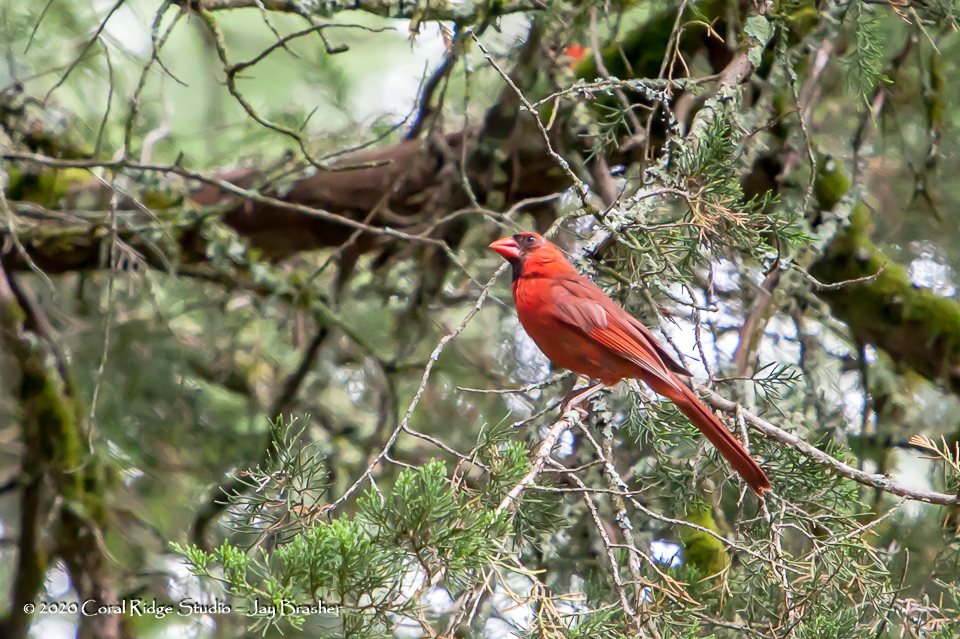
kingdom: Animalia
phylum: Chordata
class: Aves
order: Passeriformes
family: Cardinalidae
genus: Cardinalis
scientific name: Cardinalis cardinalis
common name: Northern cardinal
